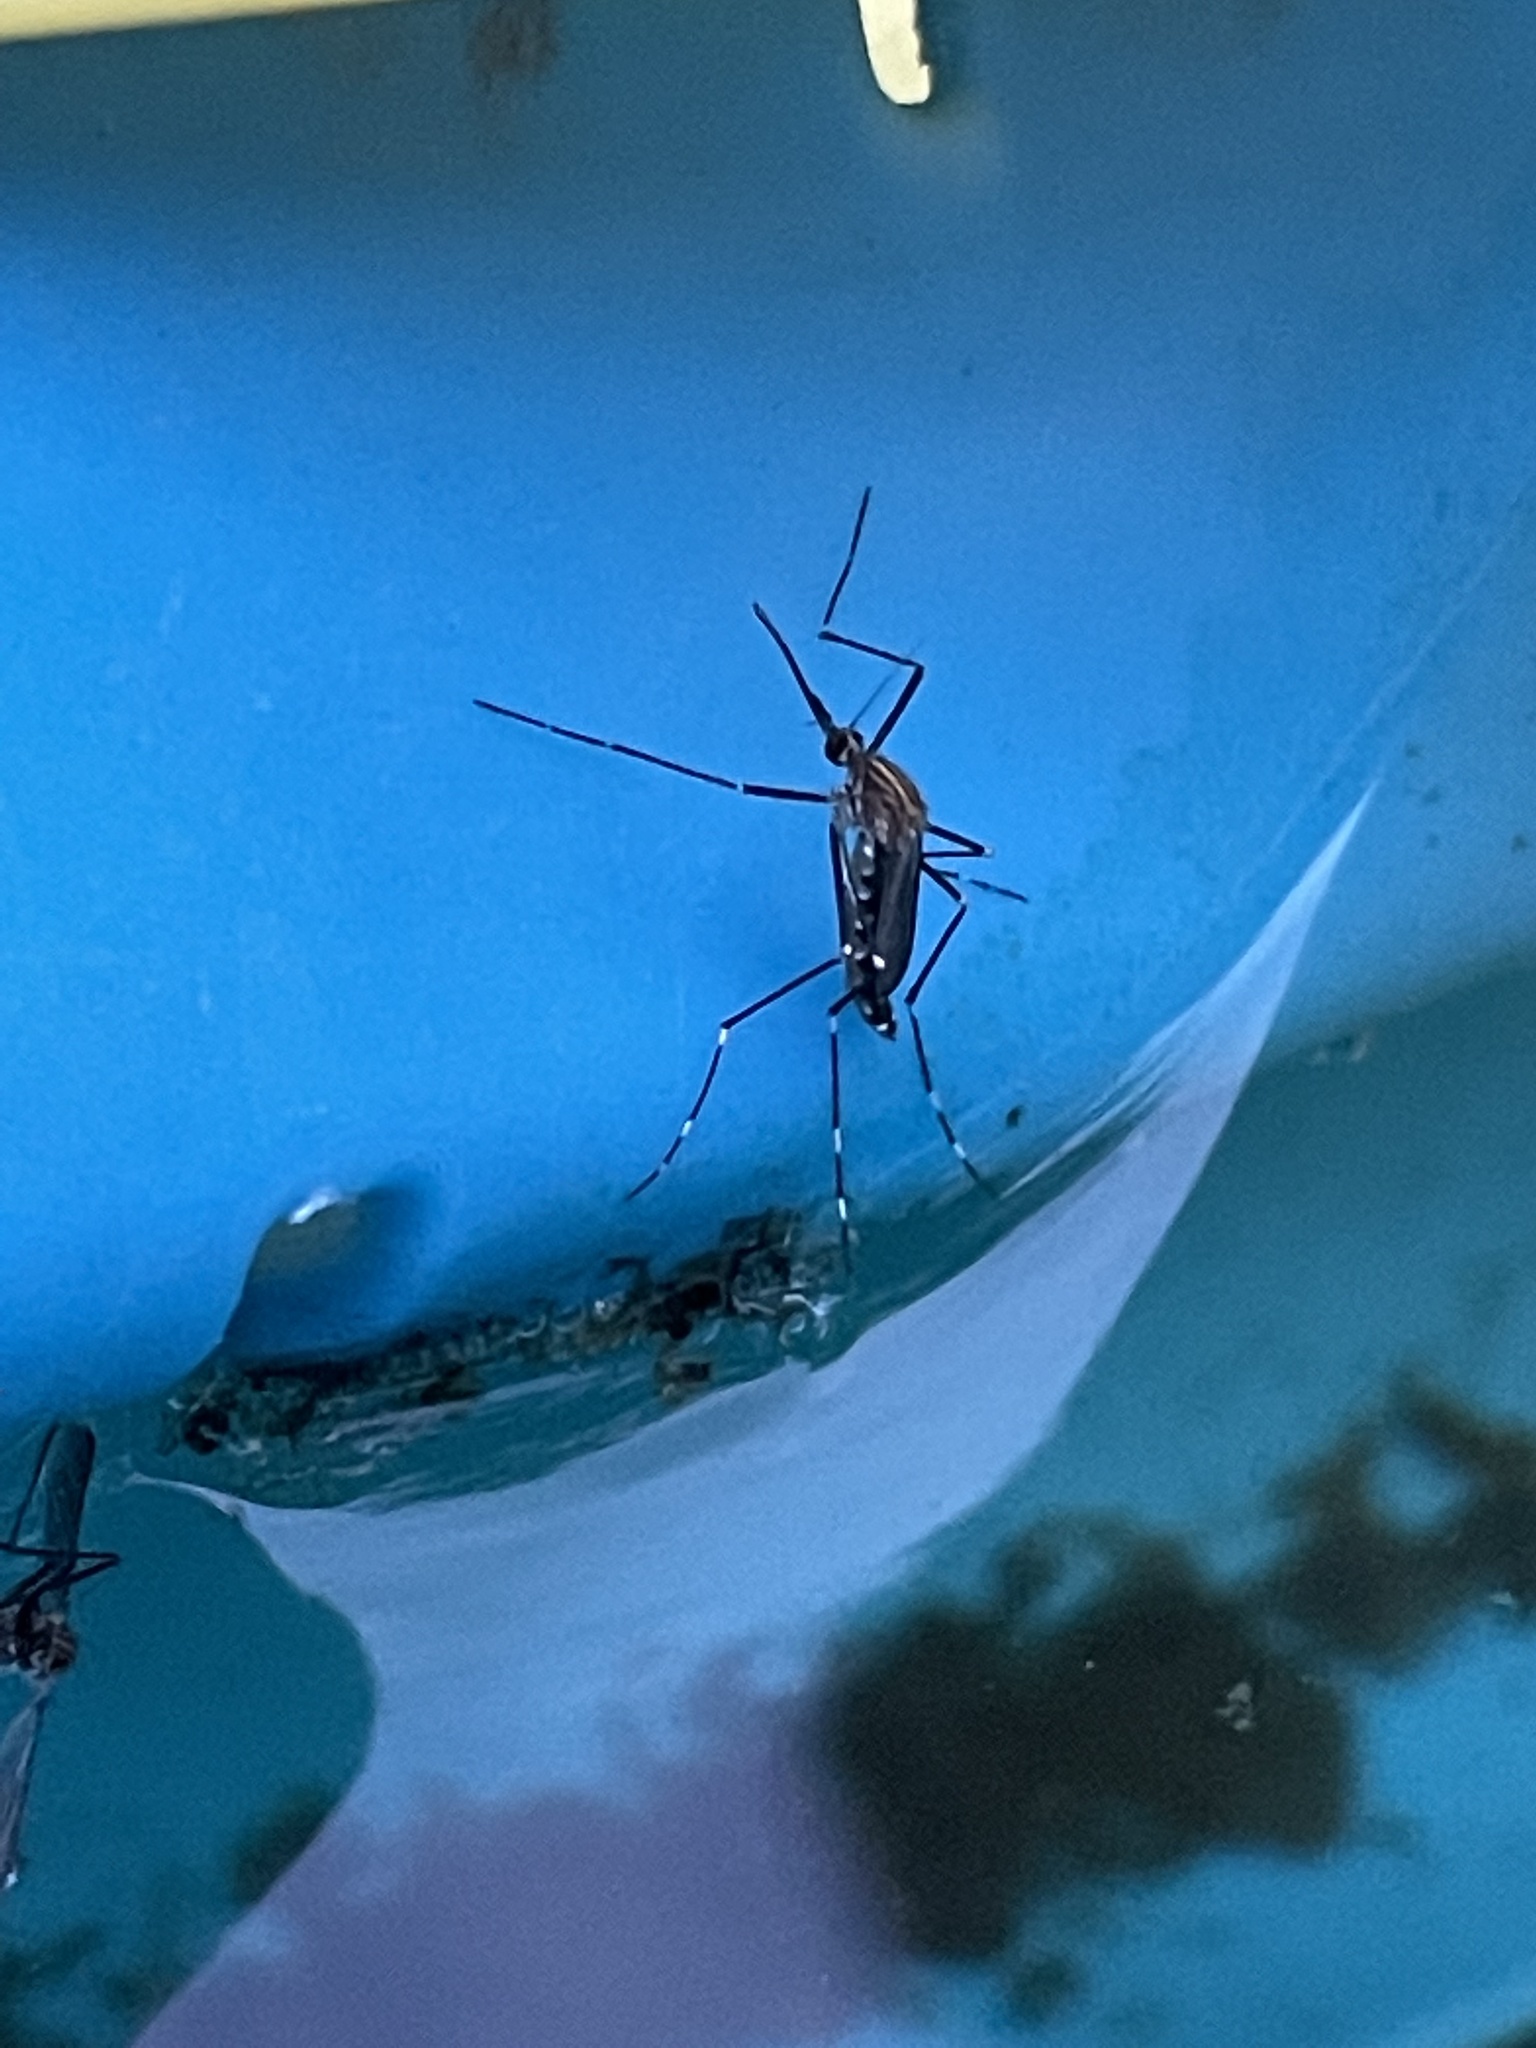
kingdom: Animalia
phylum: Arthropoda
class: Insecta
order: Diptera
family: Culicidae
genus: Aedes
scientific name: Aedes japonicus
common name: Asian bush mosquito
